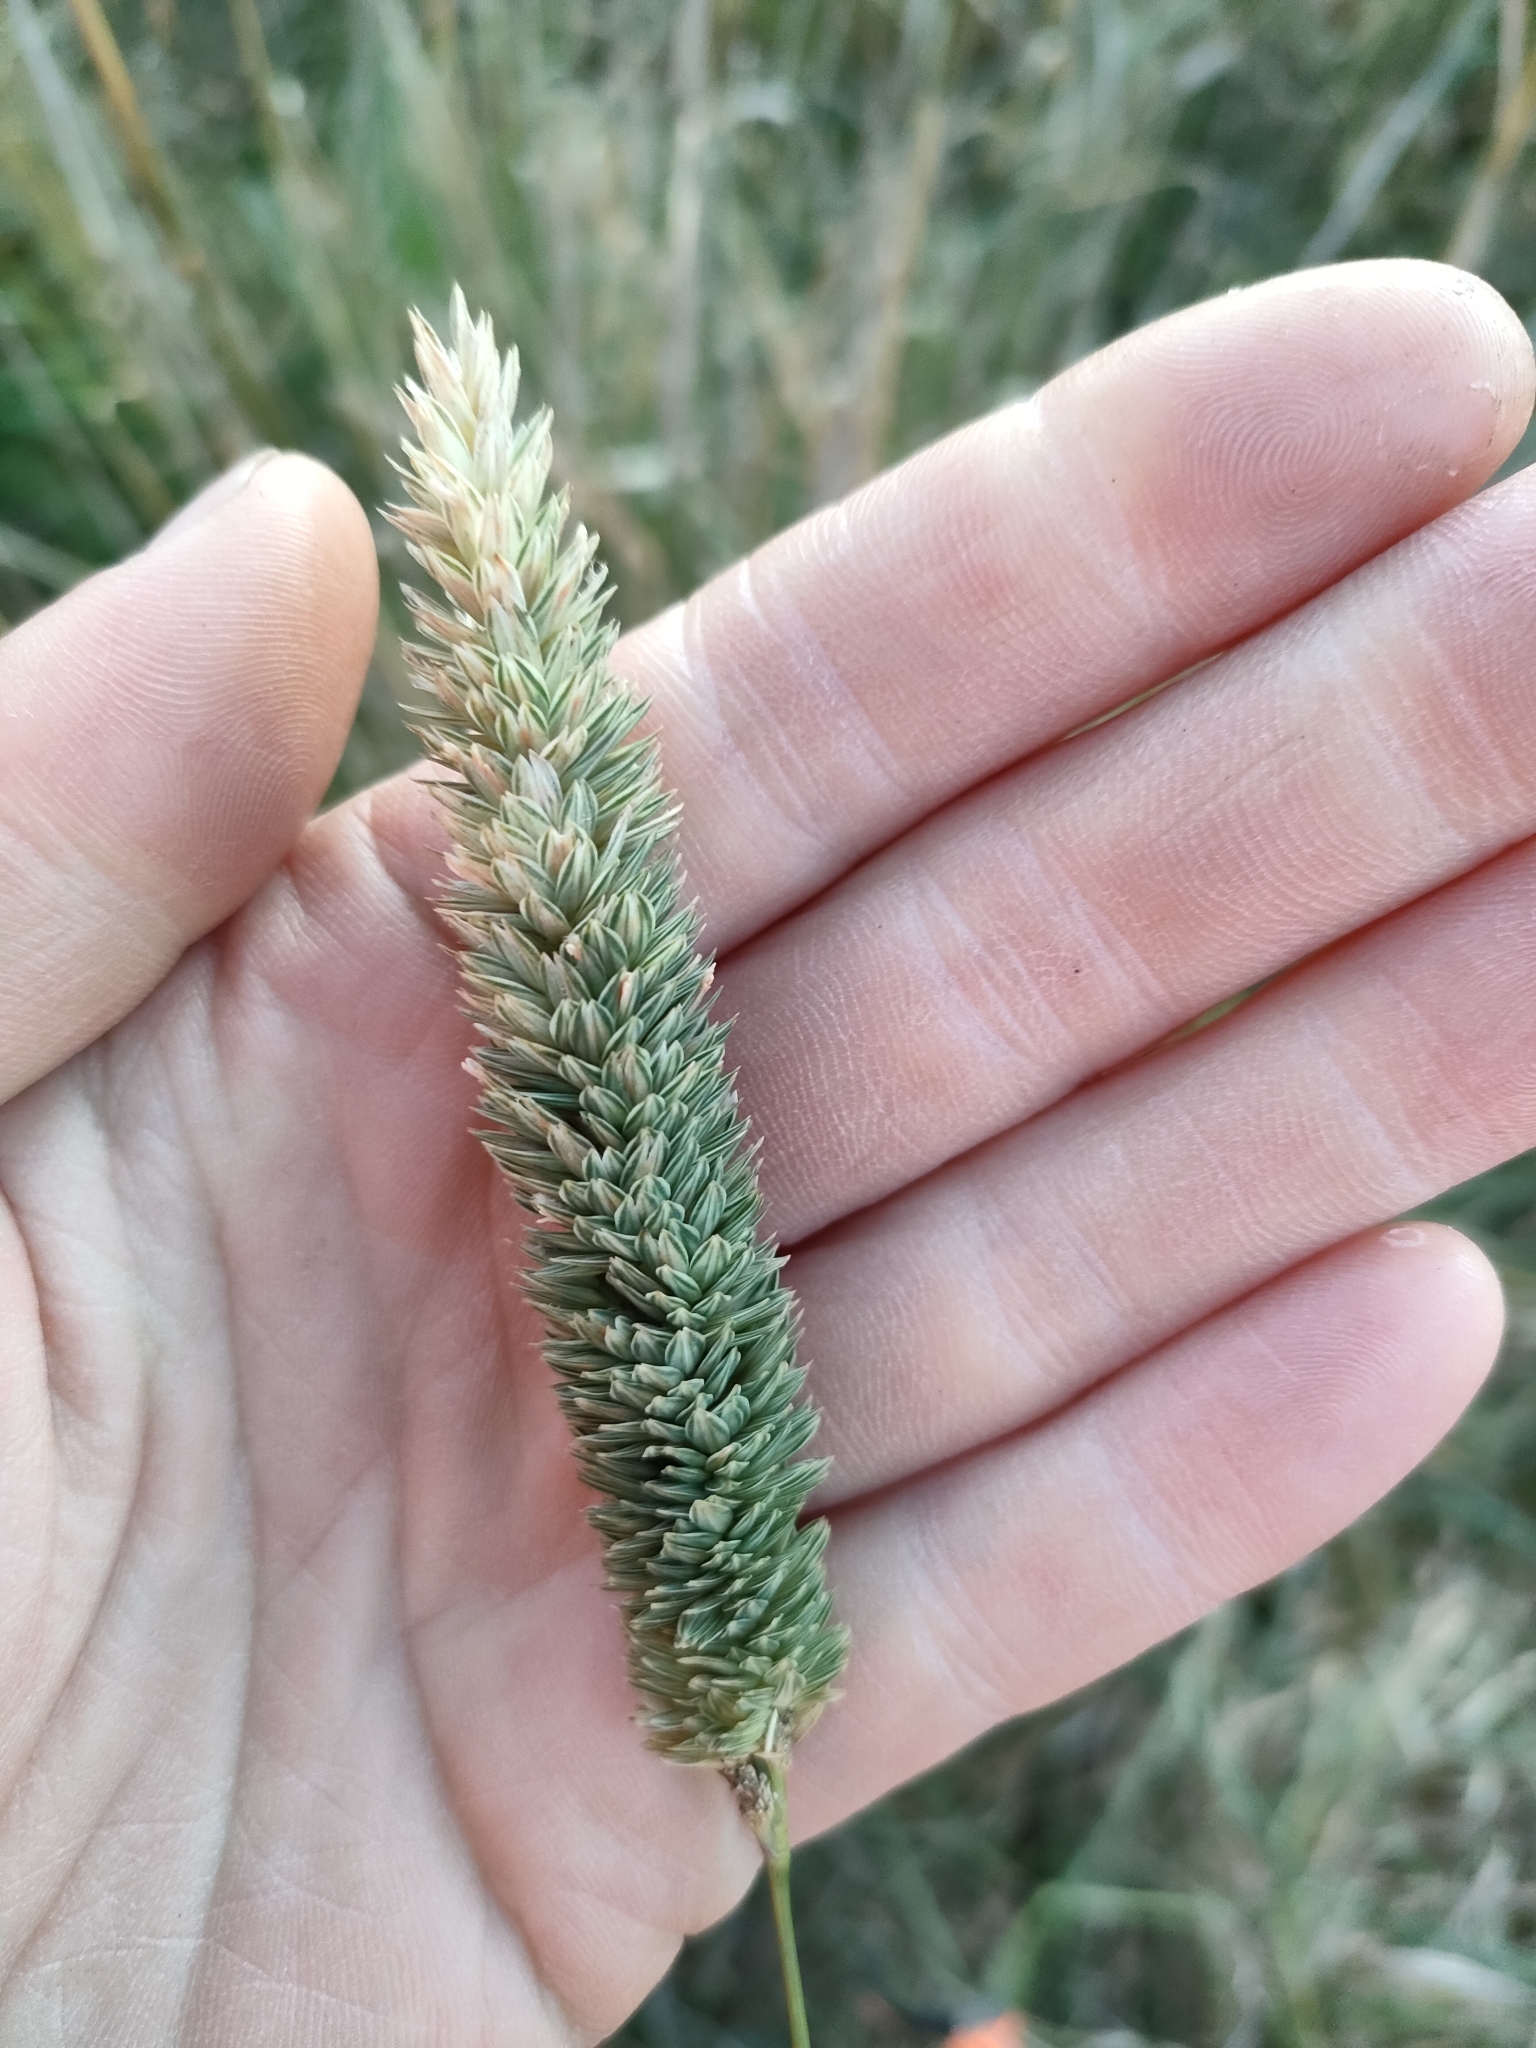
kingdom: Plantae
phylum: Tracheophyta
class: Liliopsida
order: Poales
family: Poaceae
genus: Phalaris
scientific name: Phalaris aquatica
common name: Bulbous canary-grass
